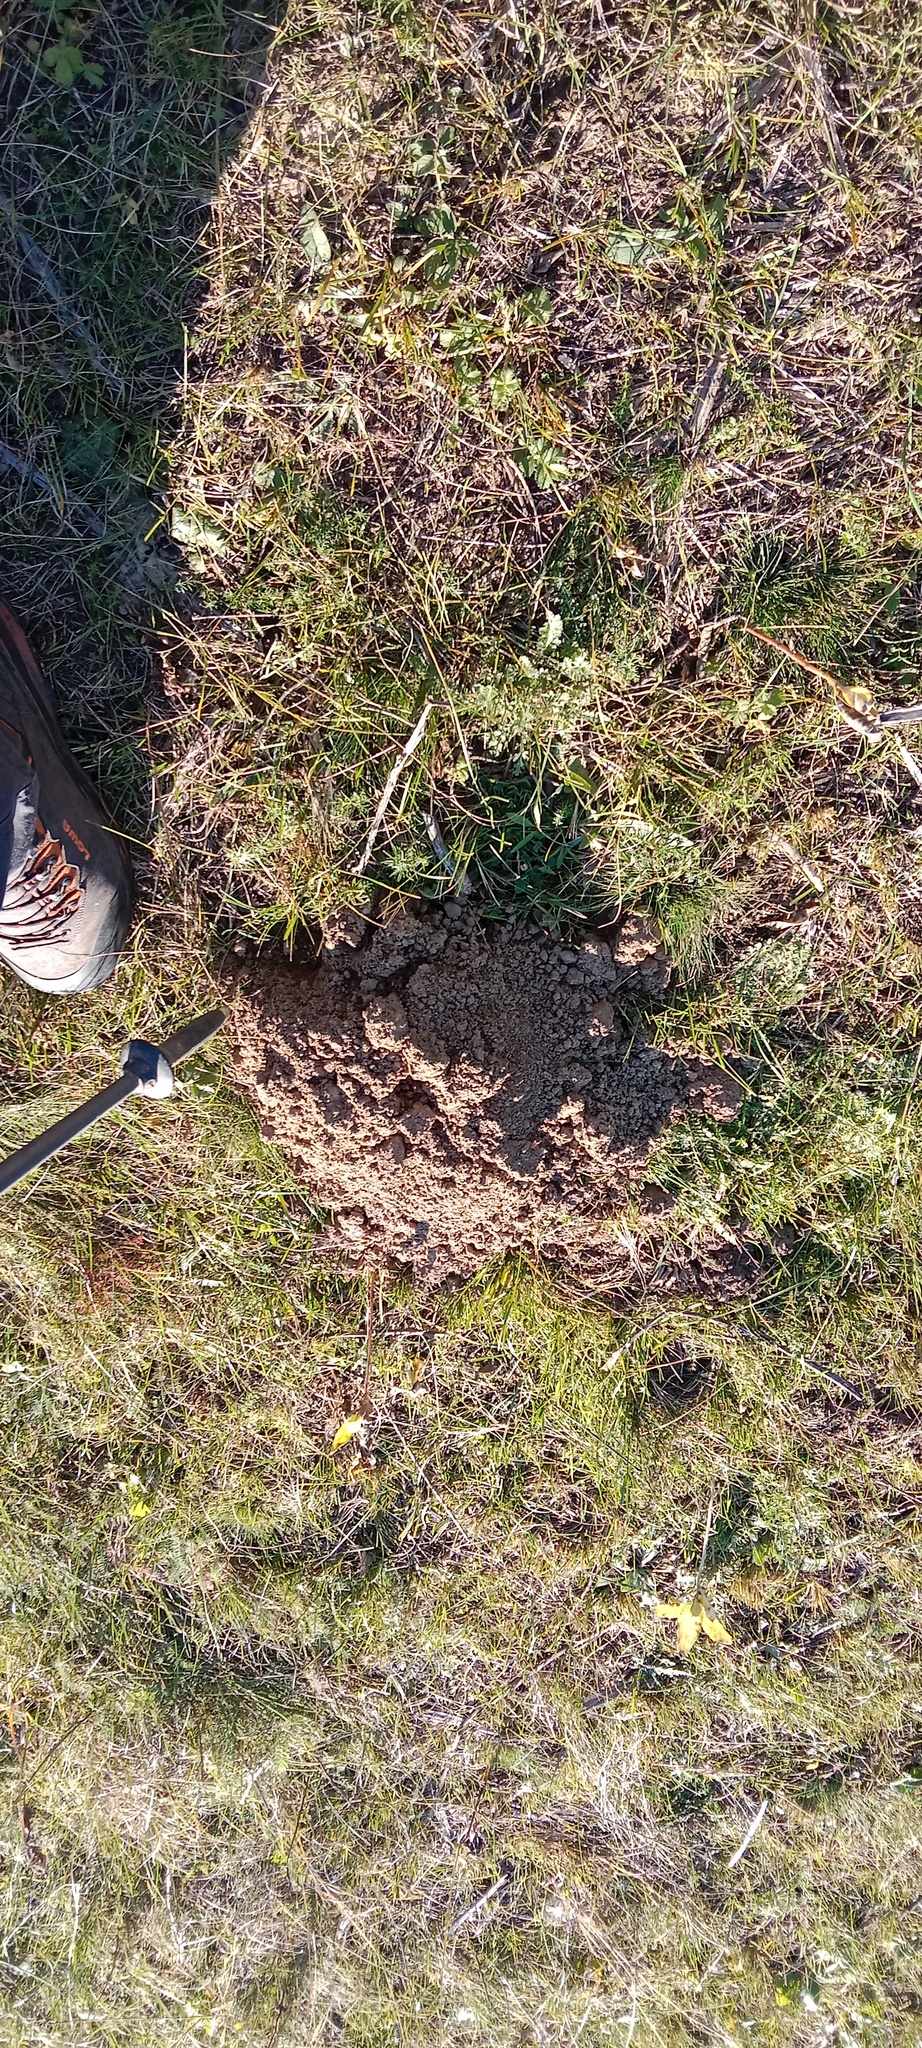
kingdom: Animalia
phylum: Chordata
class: Mammalia
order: Soricomorpha
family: Talpidae
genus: Talpa
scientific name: Talpa europaea
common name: European mole
